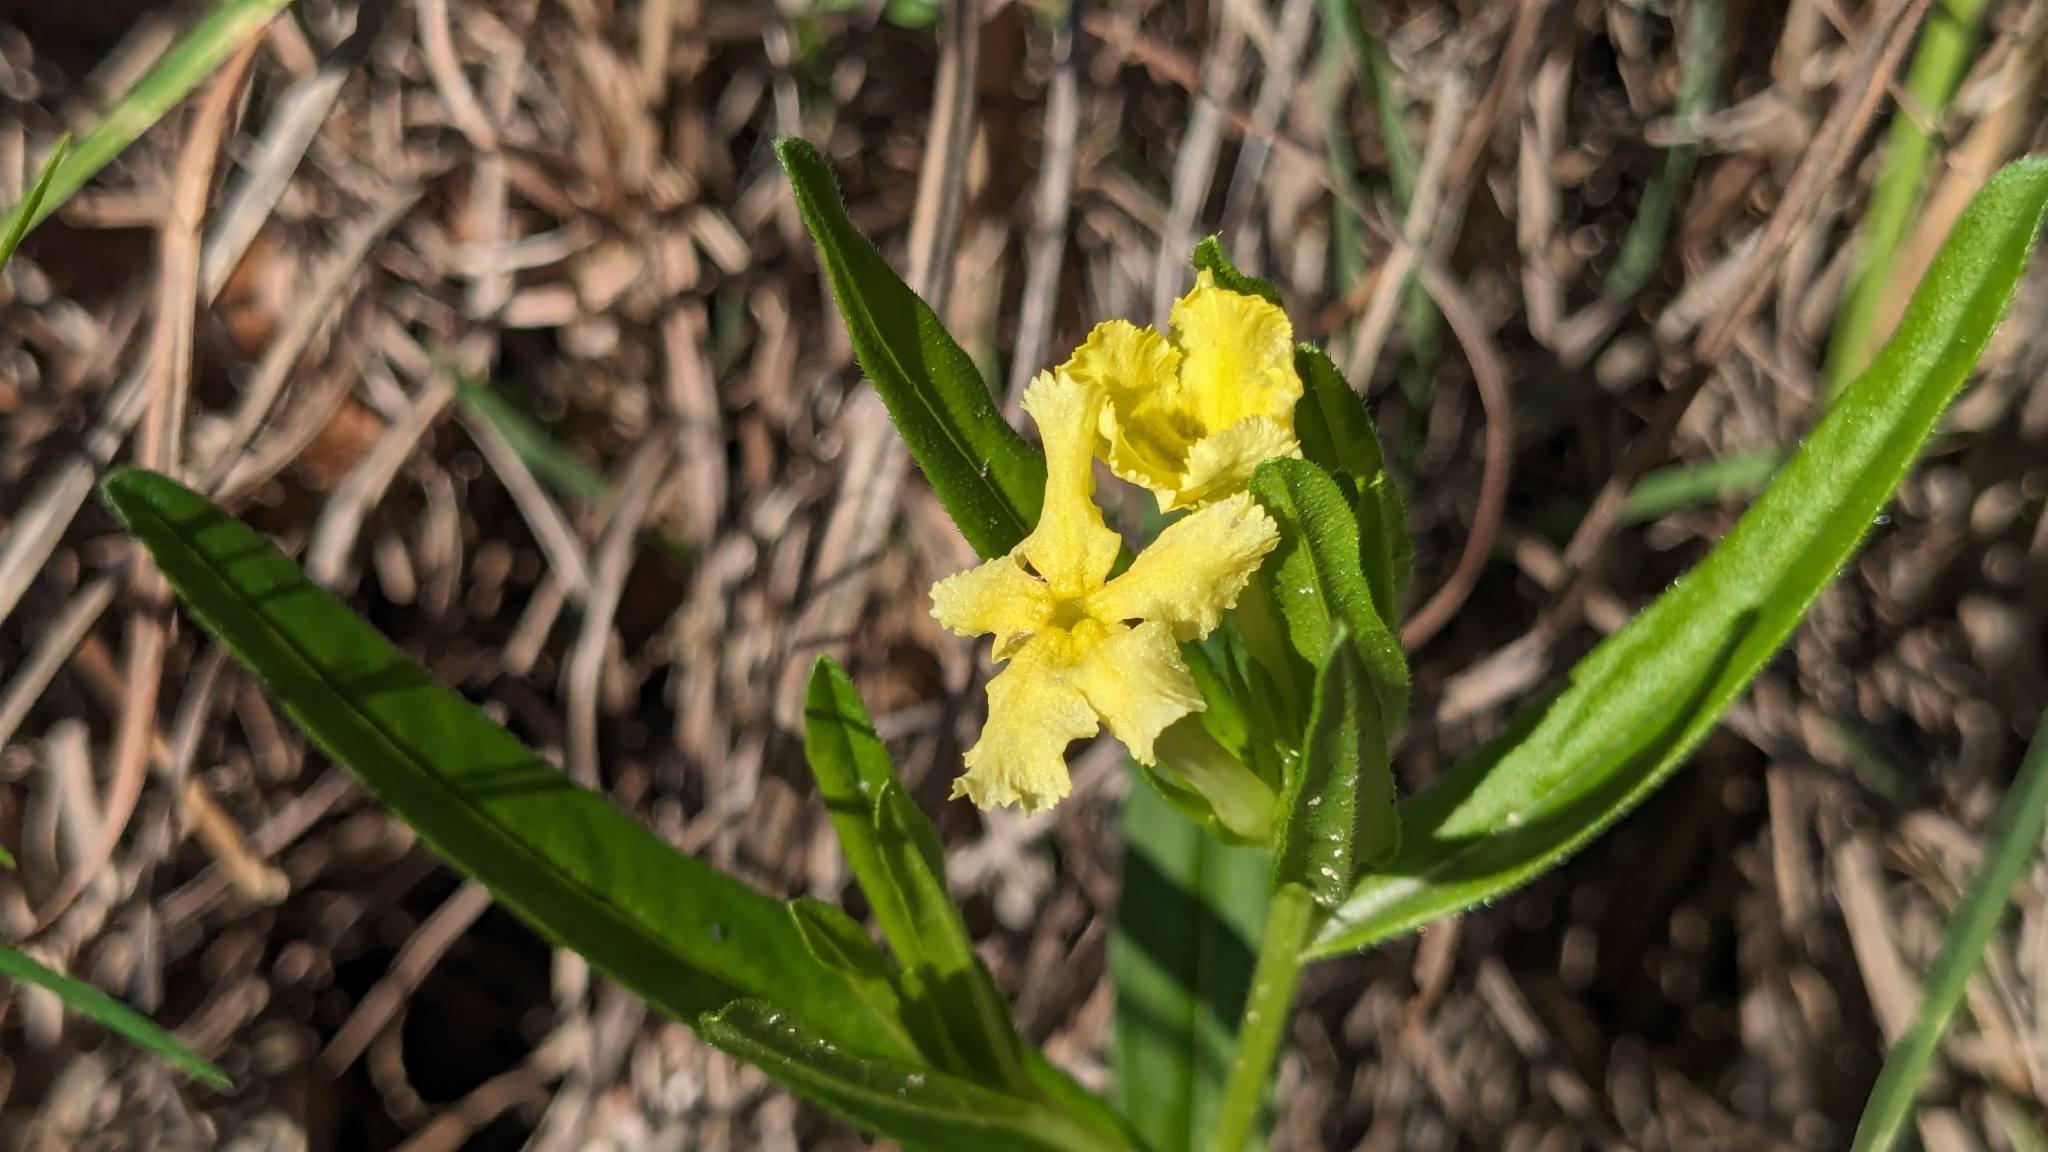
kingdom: Plantae
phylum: Tracheophyta
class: Magnoliopsida
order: Boraginales
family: Boraginaceae
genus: Lithospermum
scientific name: Lithospermum incisum
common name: Fringed gromwell
